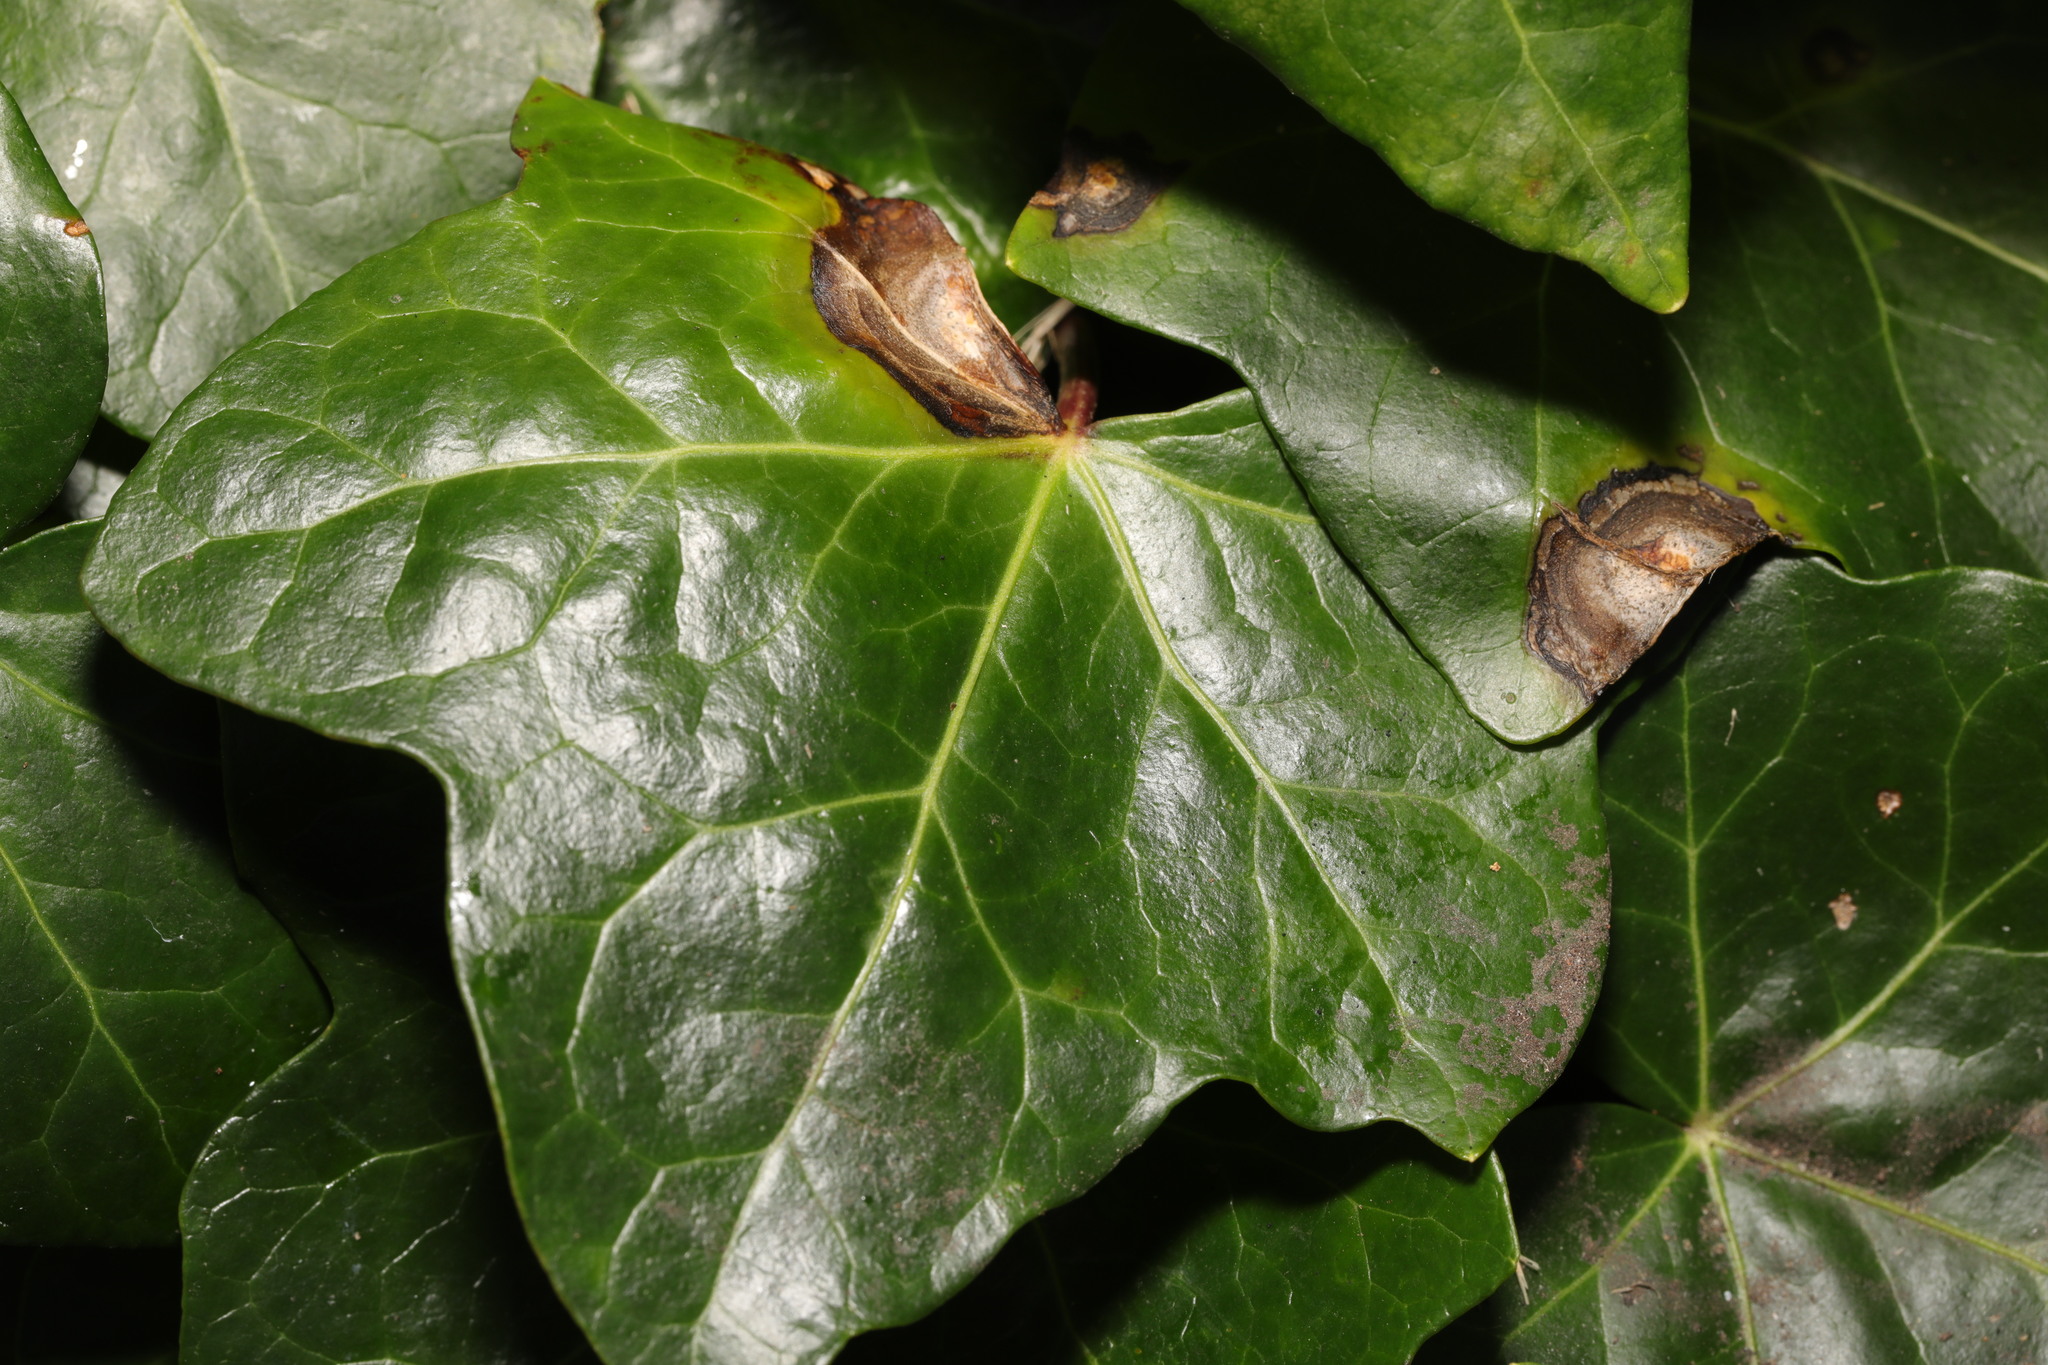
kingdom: Fungi
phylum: Ascomycota
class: Dothideomycetes
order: Pleosporales
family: Didymellaceae
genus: Boeremia
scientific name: Boeremia hedericola
